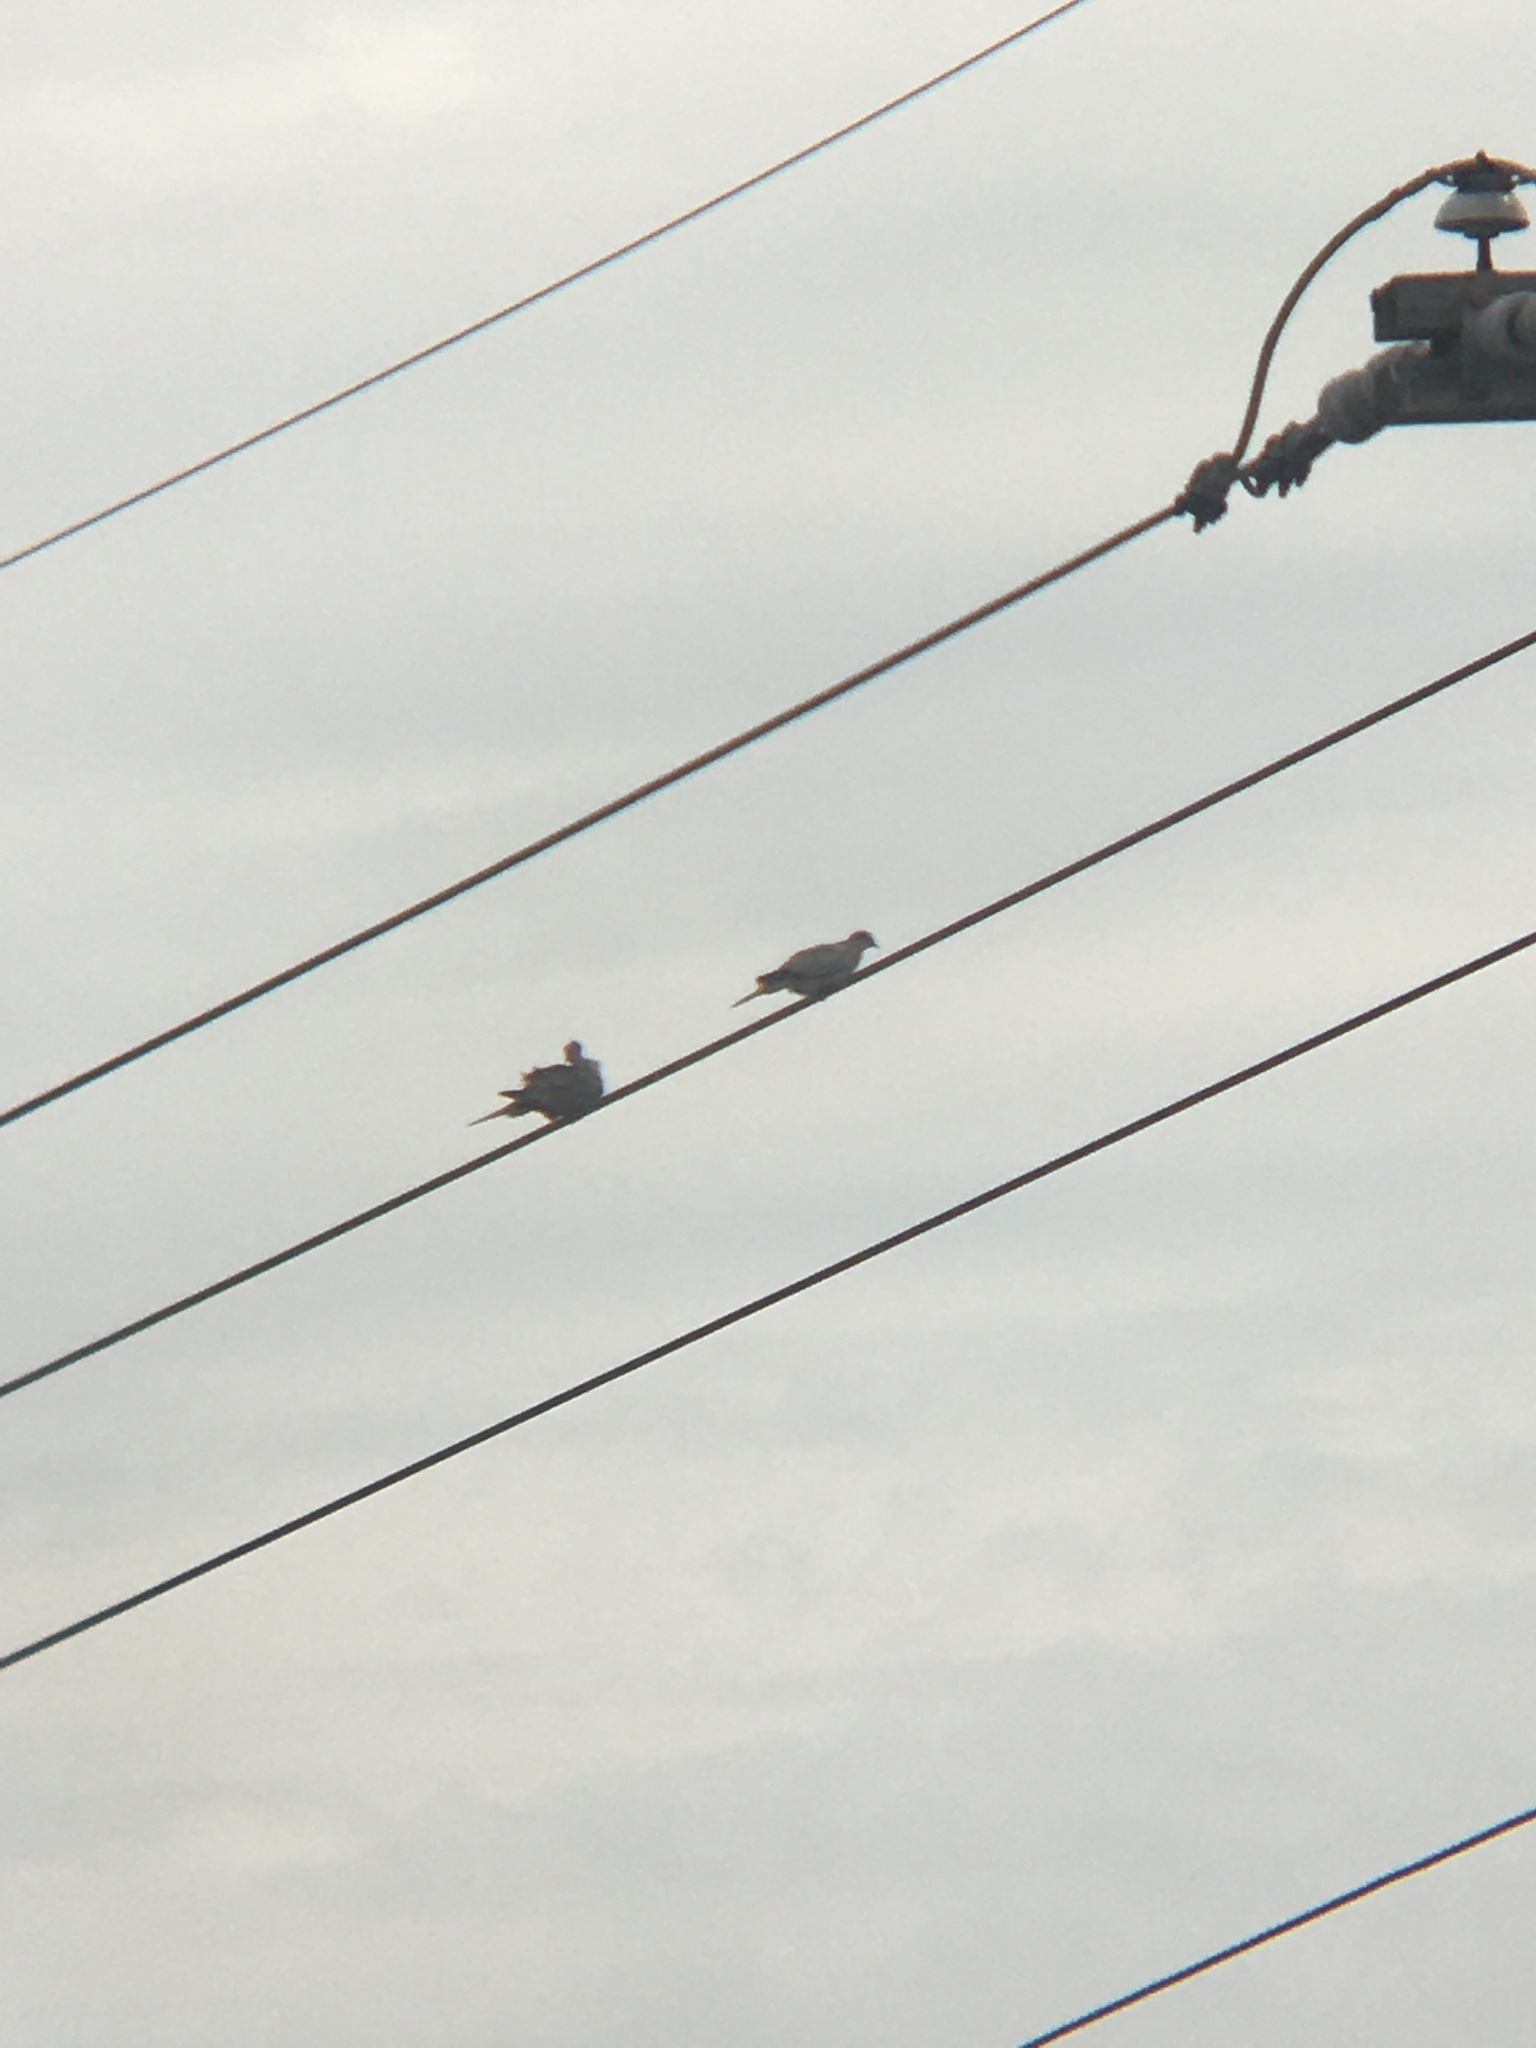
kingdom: Animalia
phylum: Chordata
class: Aves
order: Columbiformes
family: Columbidae
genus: Streptopelia
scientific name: Streptopelia decaocto
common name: Eurasian collared dove
